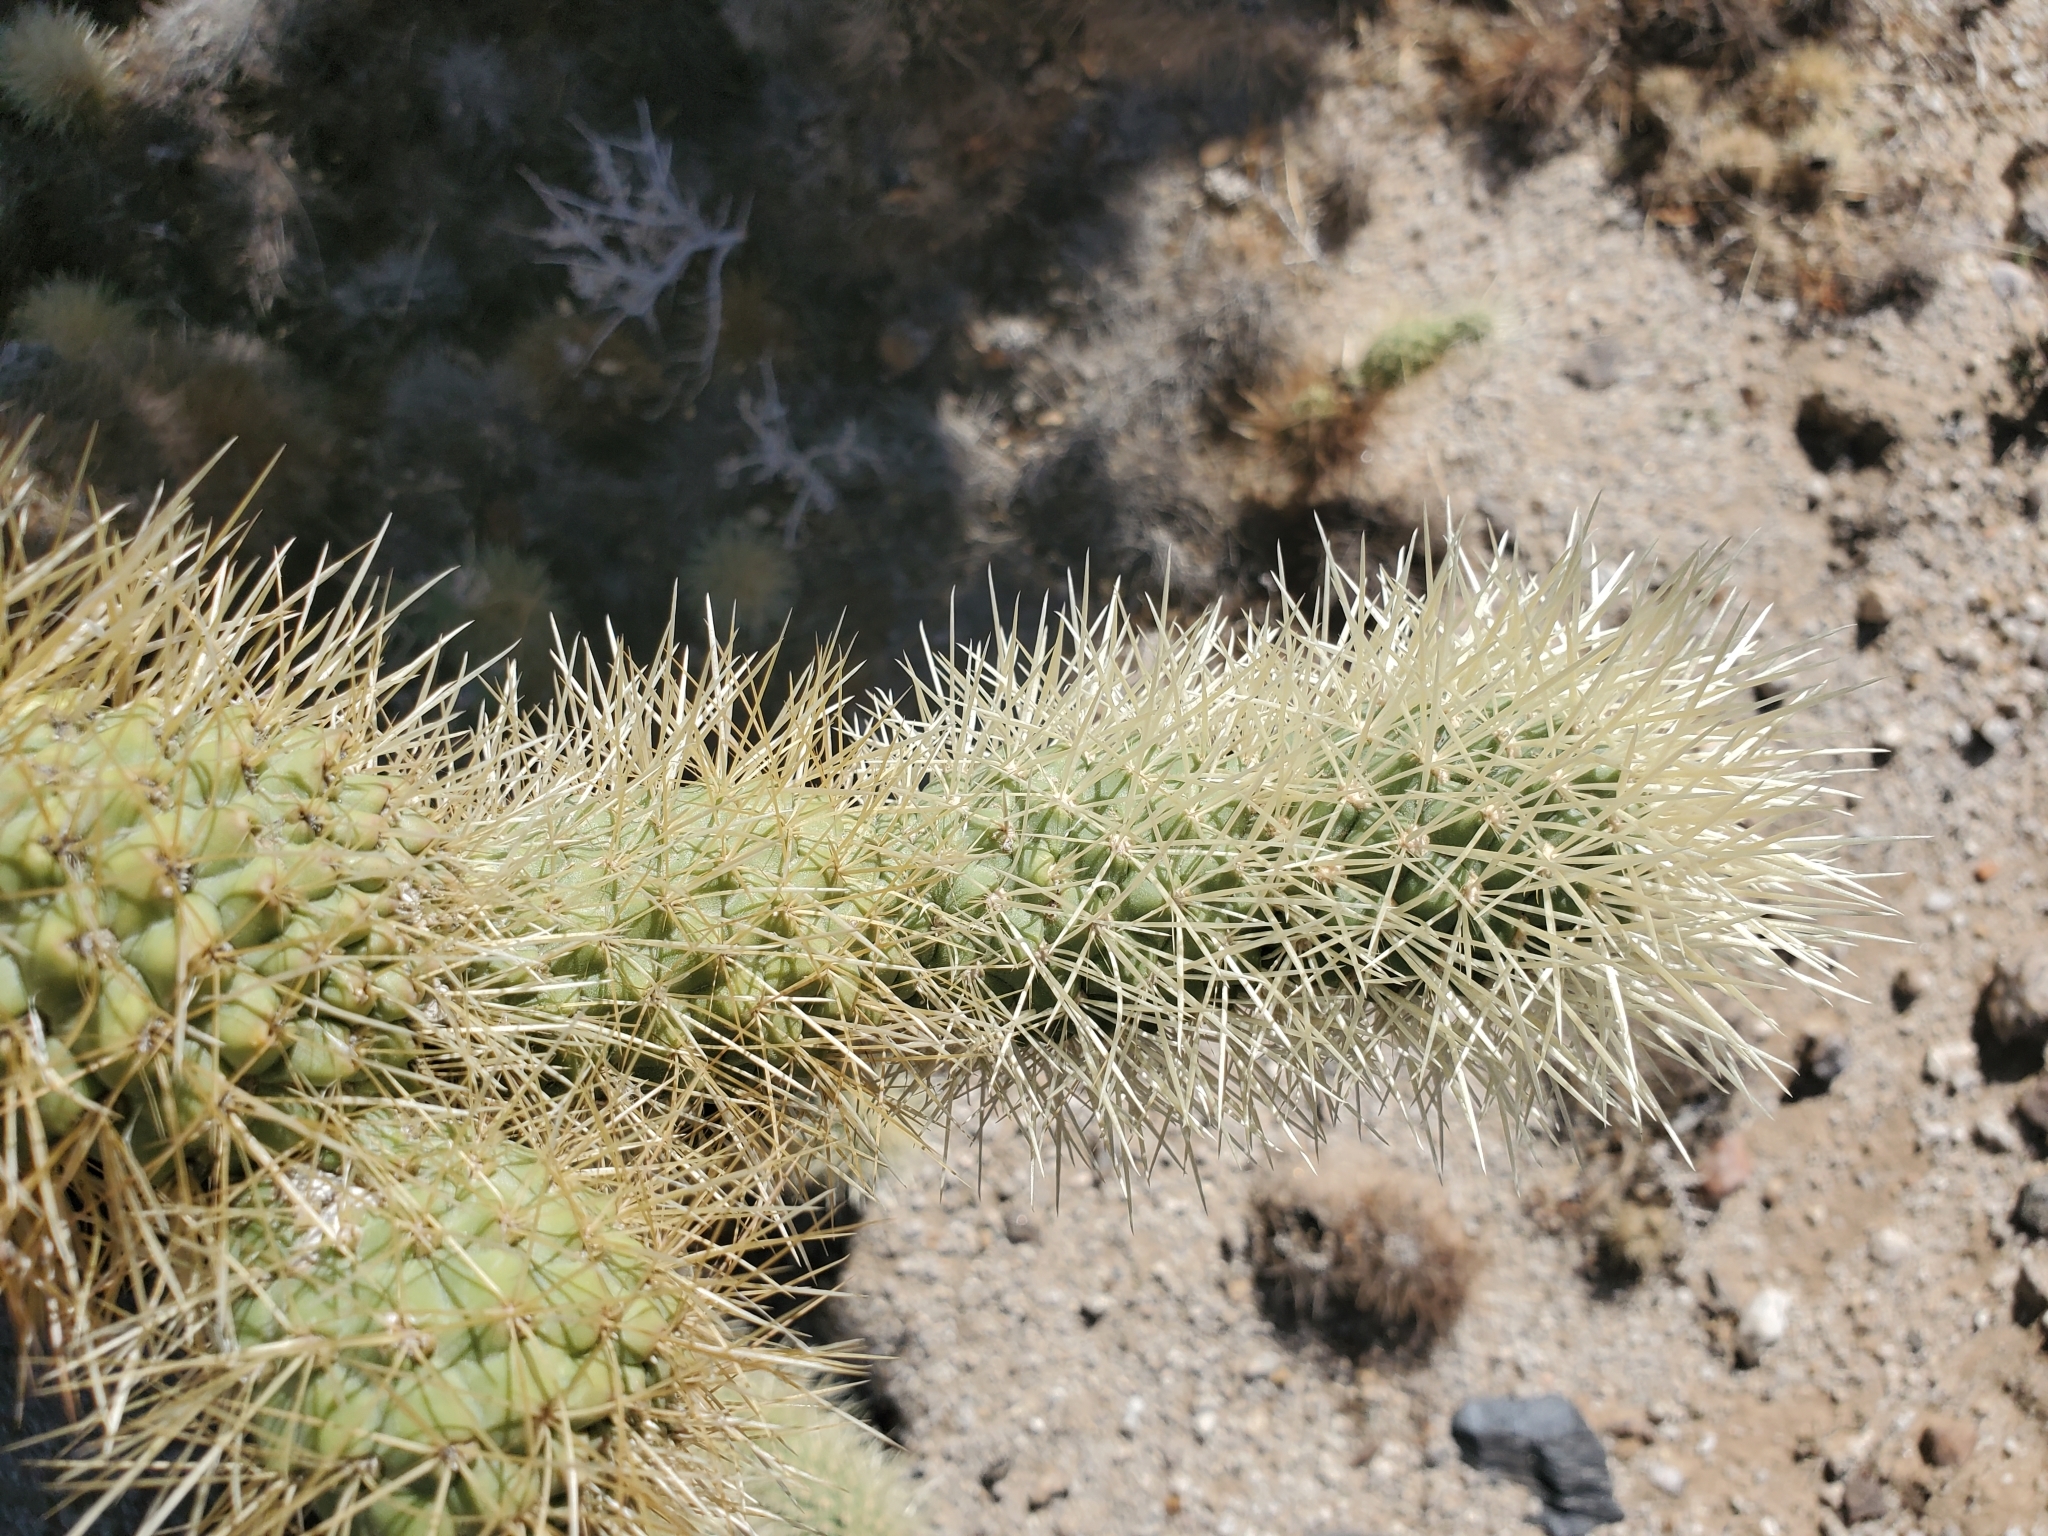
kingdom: Plantae
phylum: Tracheophyta
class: Magnoliopsida
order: Caryophyllales
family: Cactaceae
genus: Cylindropuntia
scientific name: Cylindropuntia fosbergii
